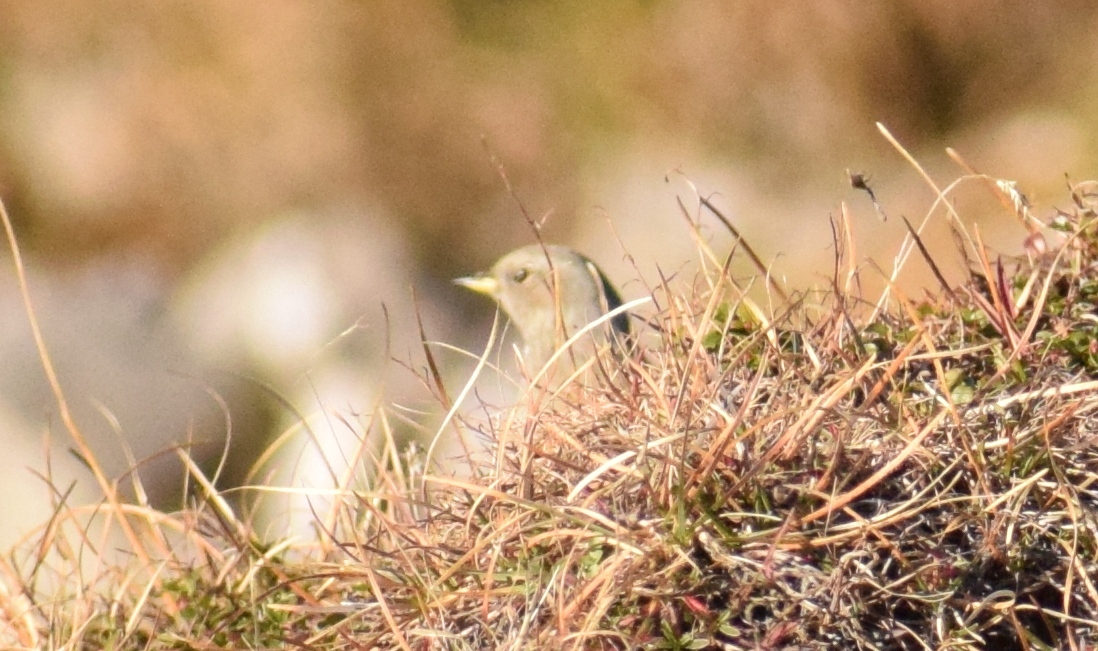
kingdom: Animalia
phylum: Chordata
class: Aves
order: Passeriformes
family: Prunellidae
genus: Prunella
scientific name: Prunella collaris
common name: Alpine accentor
